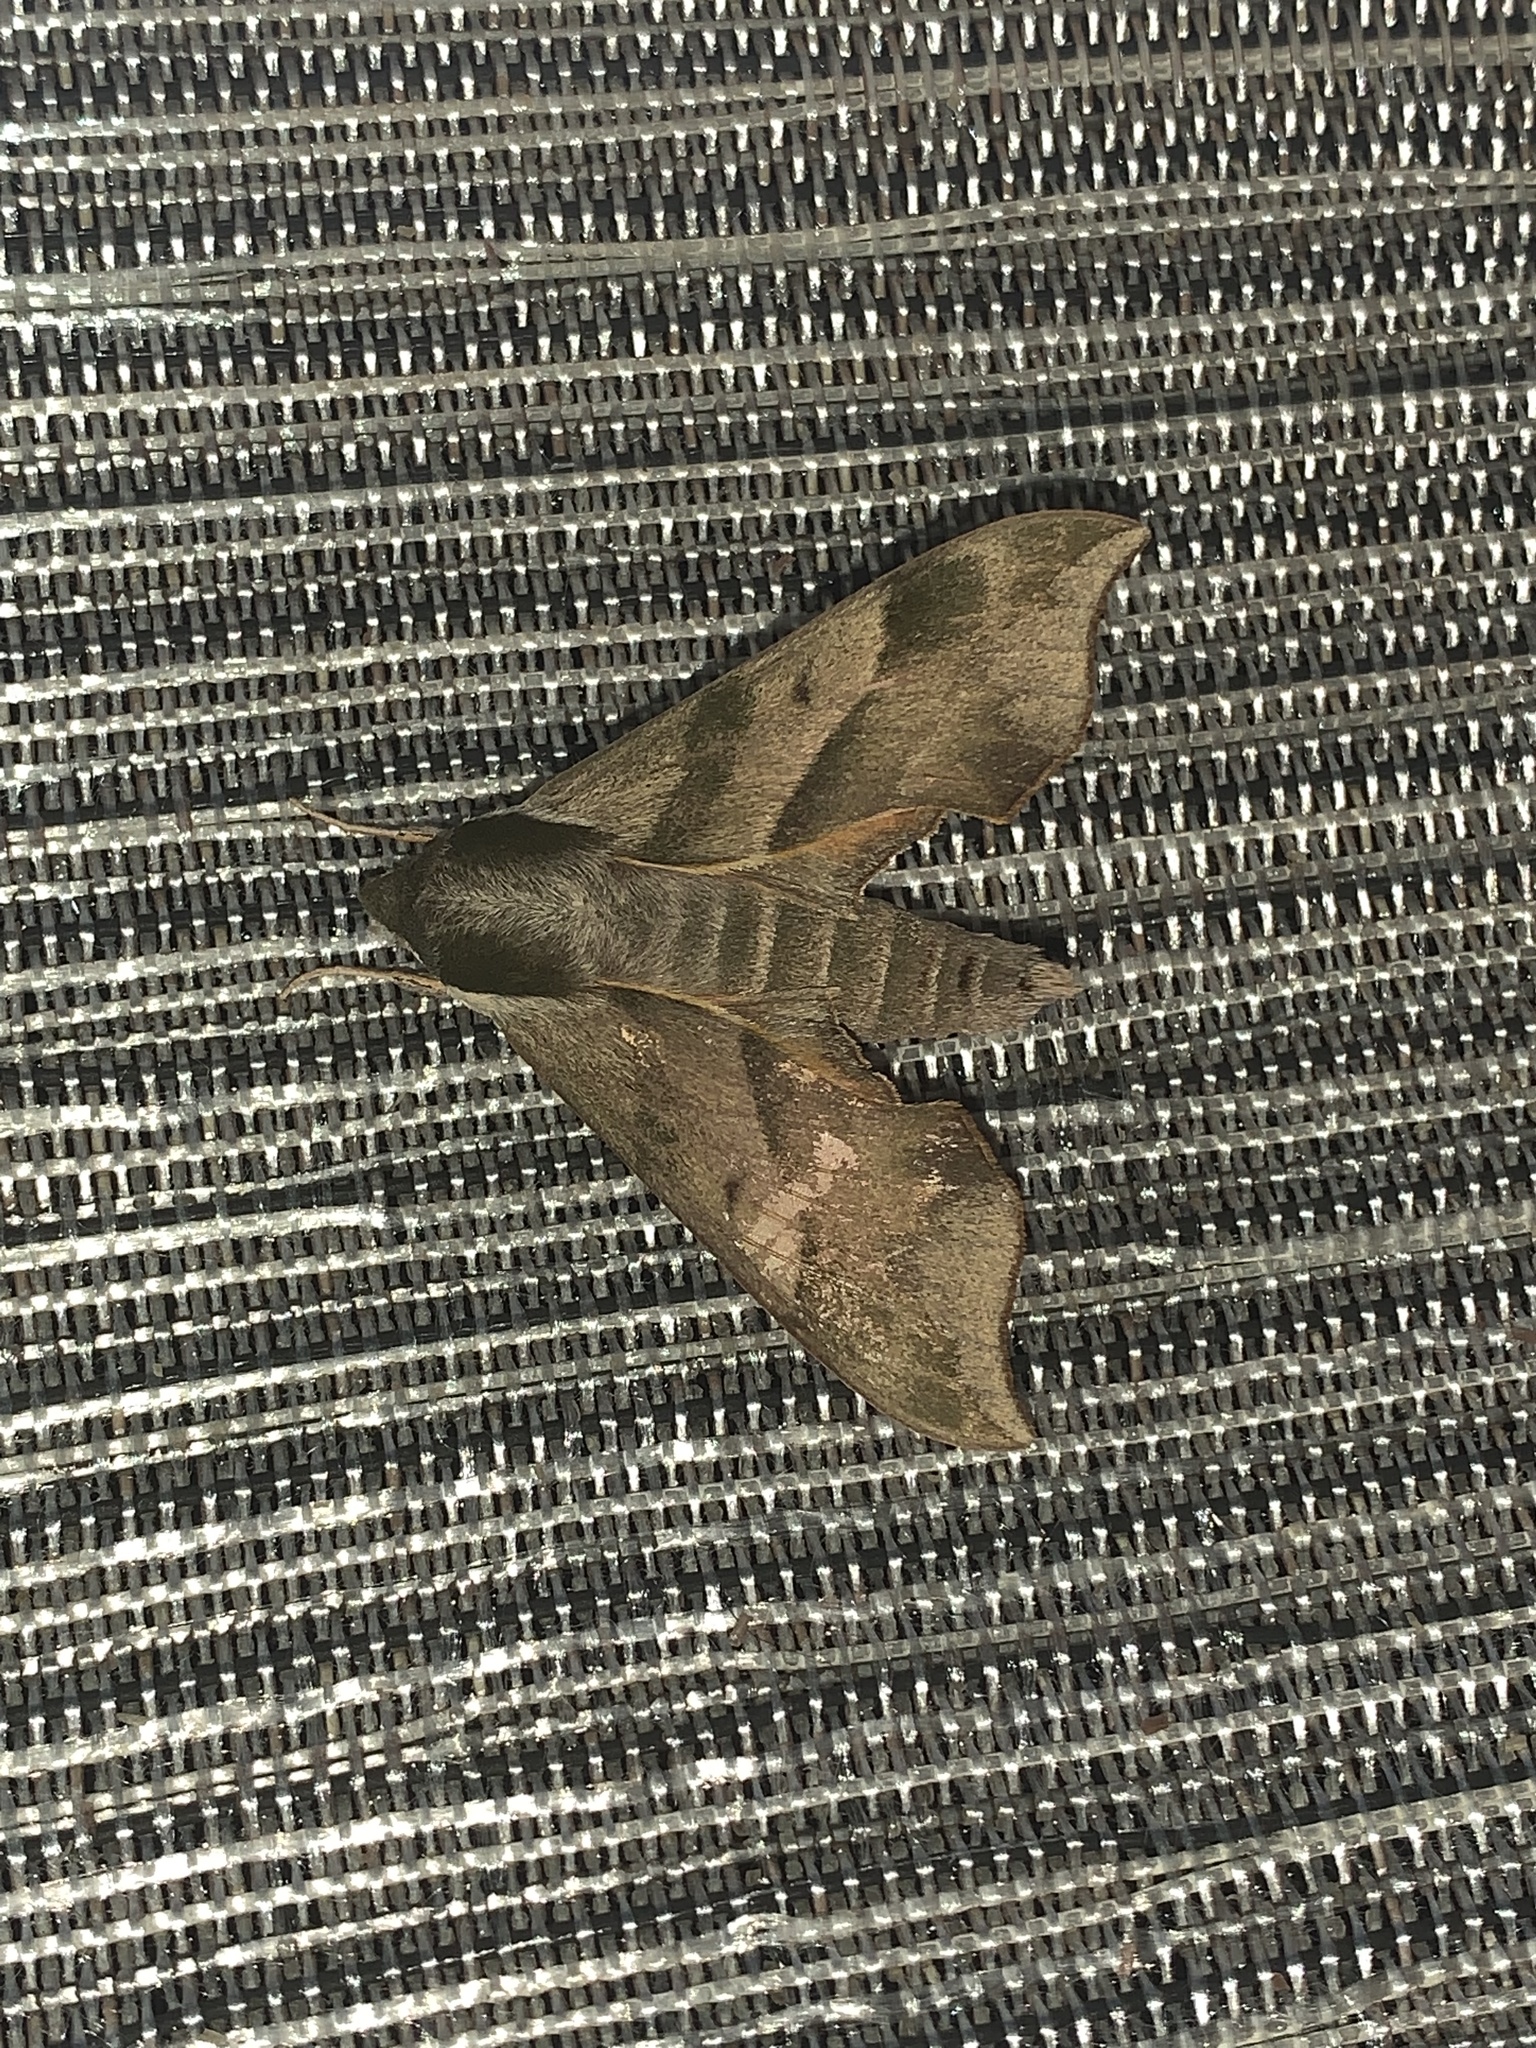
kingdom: Animalia
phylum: Arthropoda
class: Insecta
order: Lepidoptera
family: Sphingidae
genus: Darapsa
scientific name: Darapsa myron
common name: Hog sphinx
